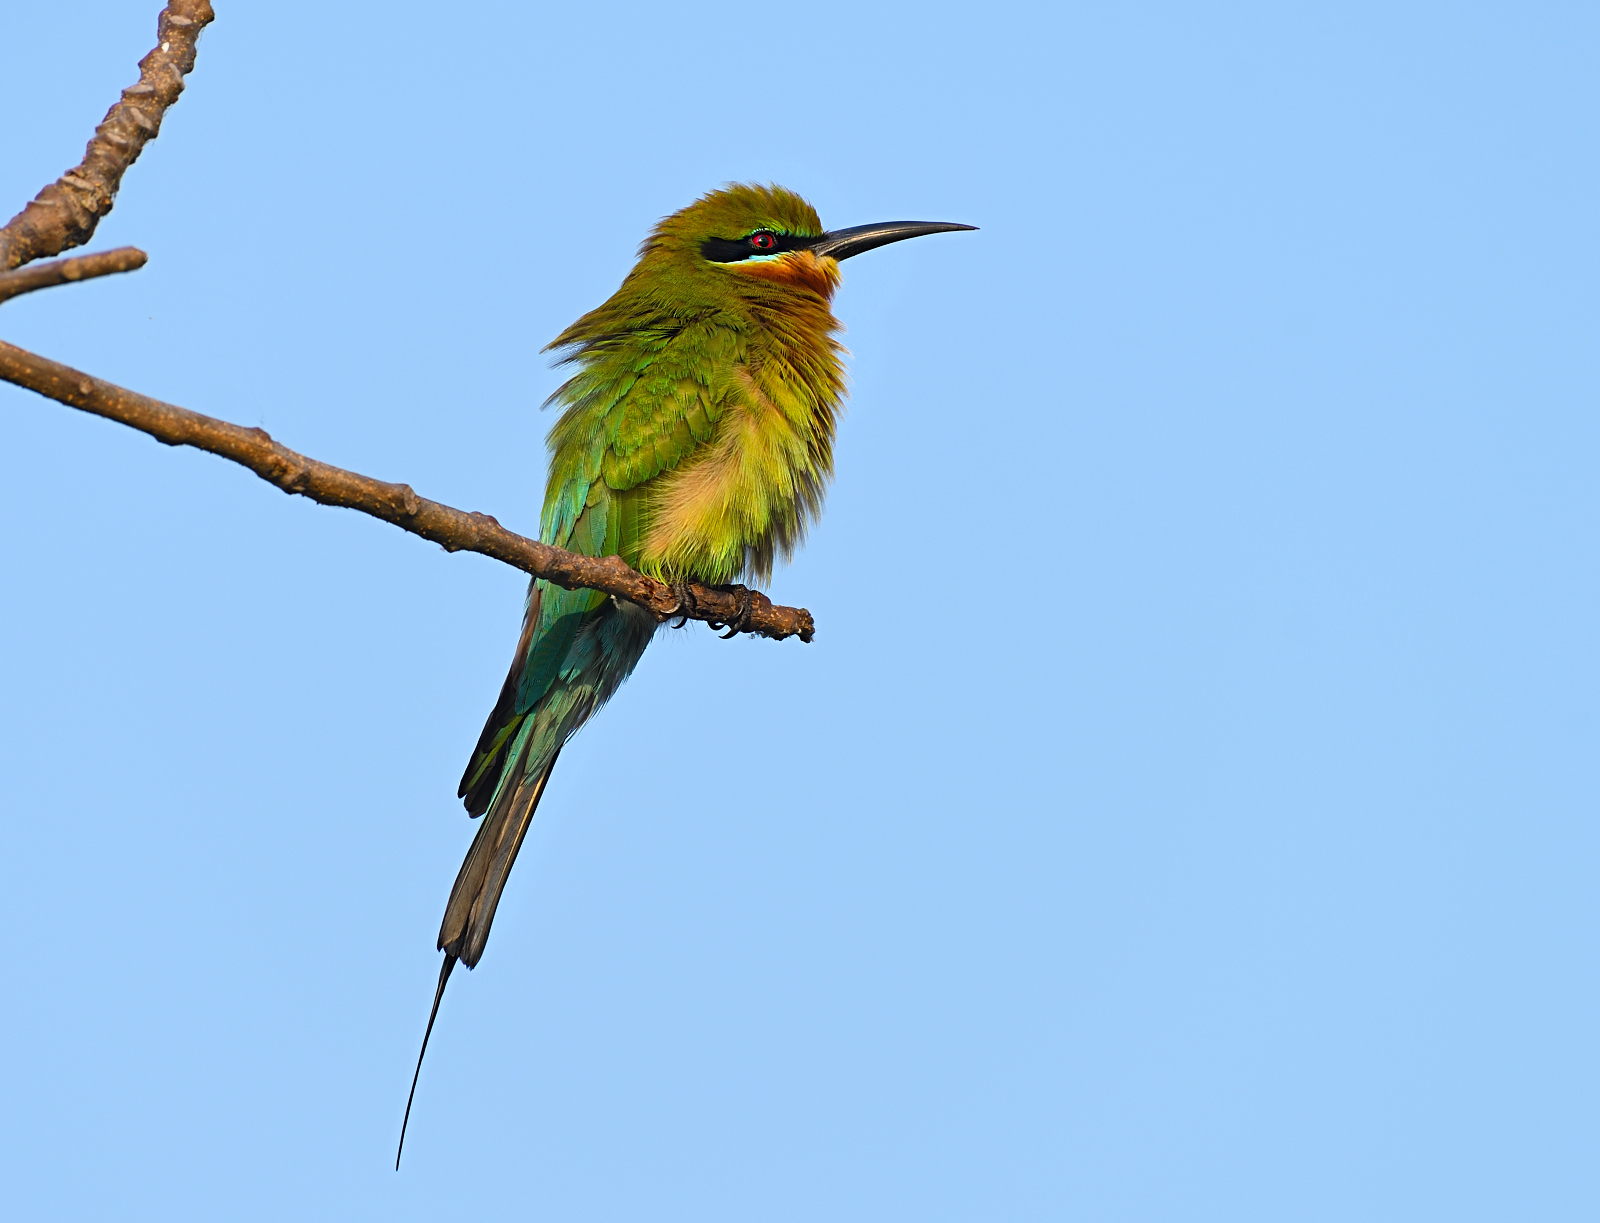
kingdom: Animalia
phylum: Chordata
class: Aves
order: Coraciiformes
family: Meropidae
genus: Merops
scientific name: Merops philippinus
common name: Blue-tailed bee-eater
